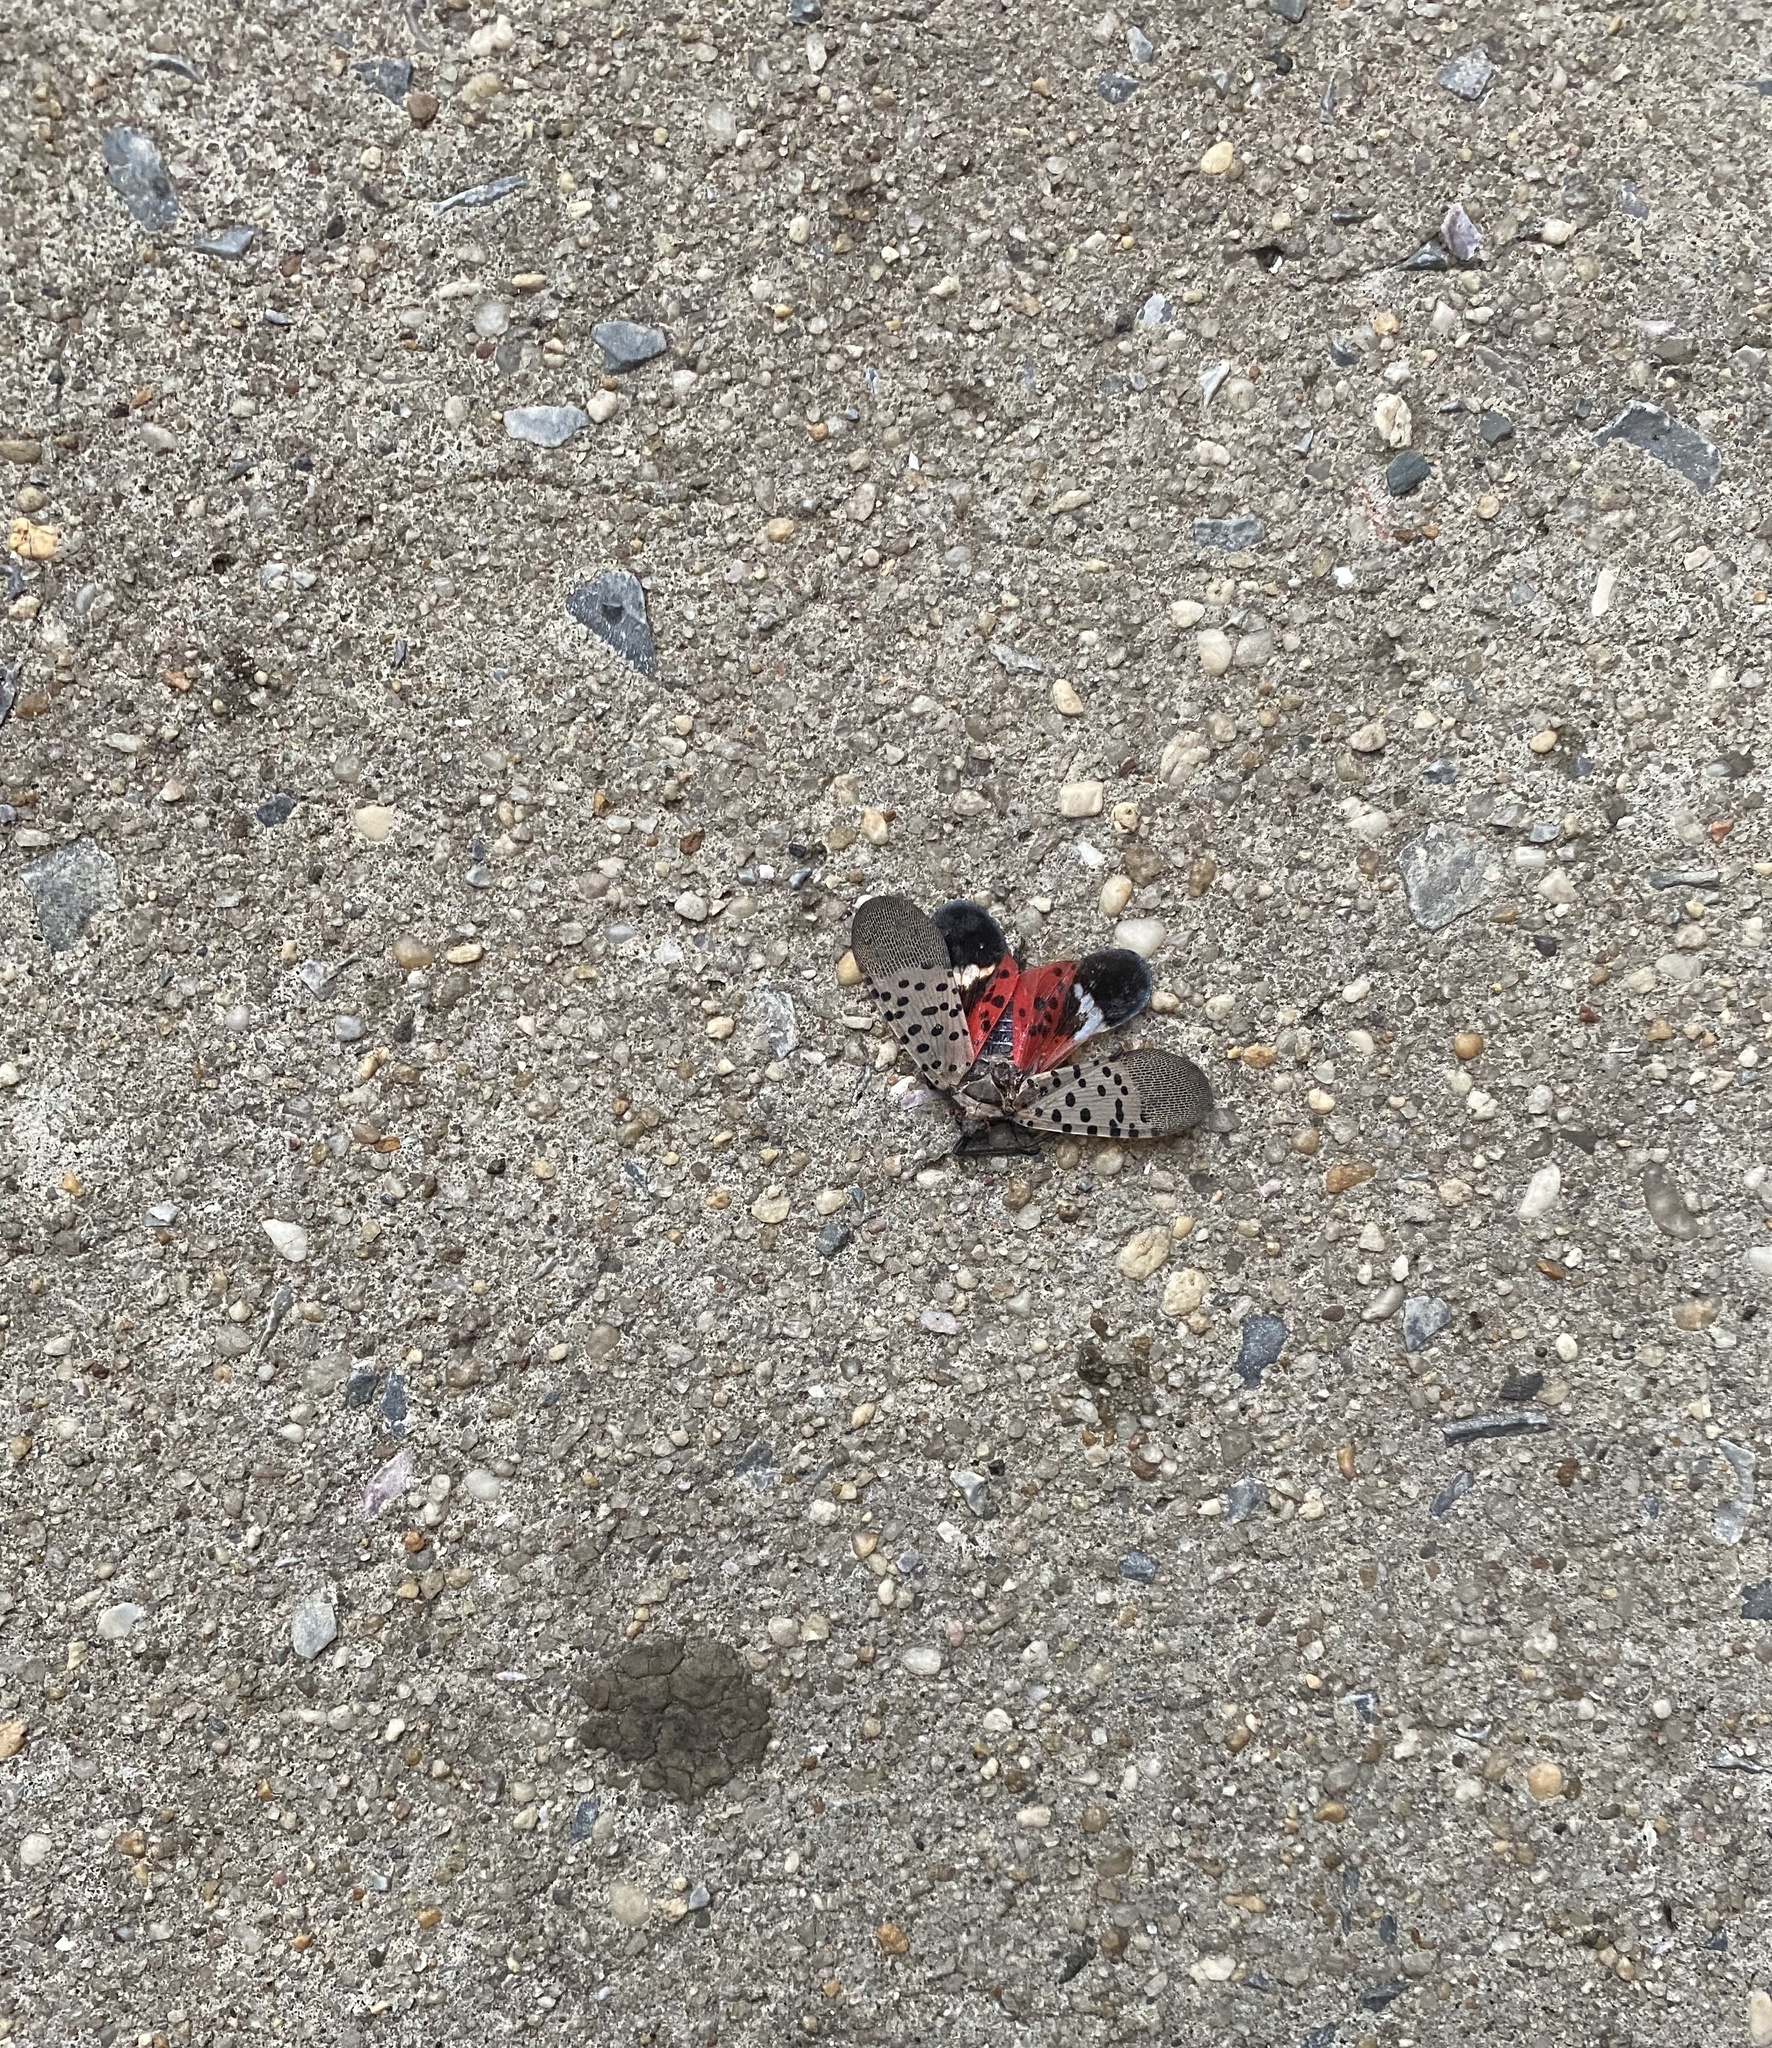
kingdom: Animalia
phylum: Arthropoda
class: Insecta
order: Hemiptera
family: Fulgoridae
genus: Lycorma
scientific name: Lycorma delicatula
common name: Spotted lanternfly
